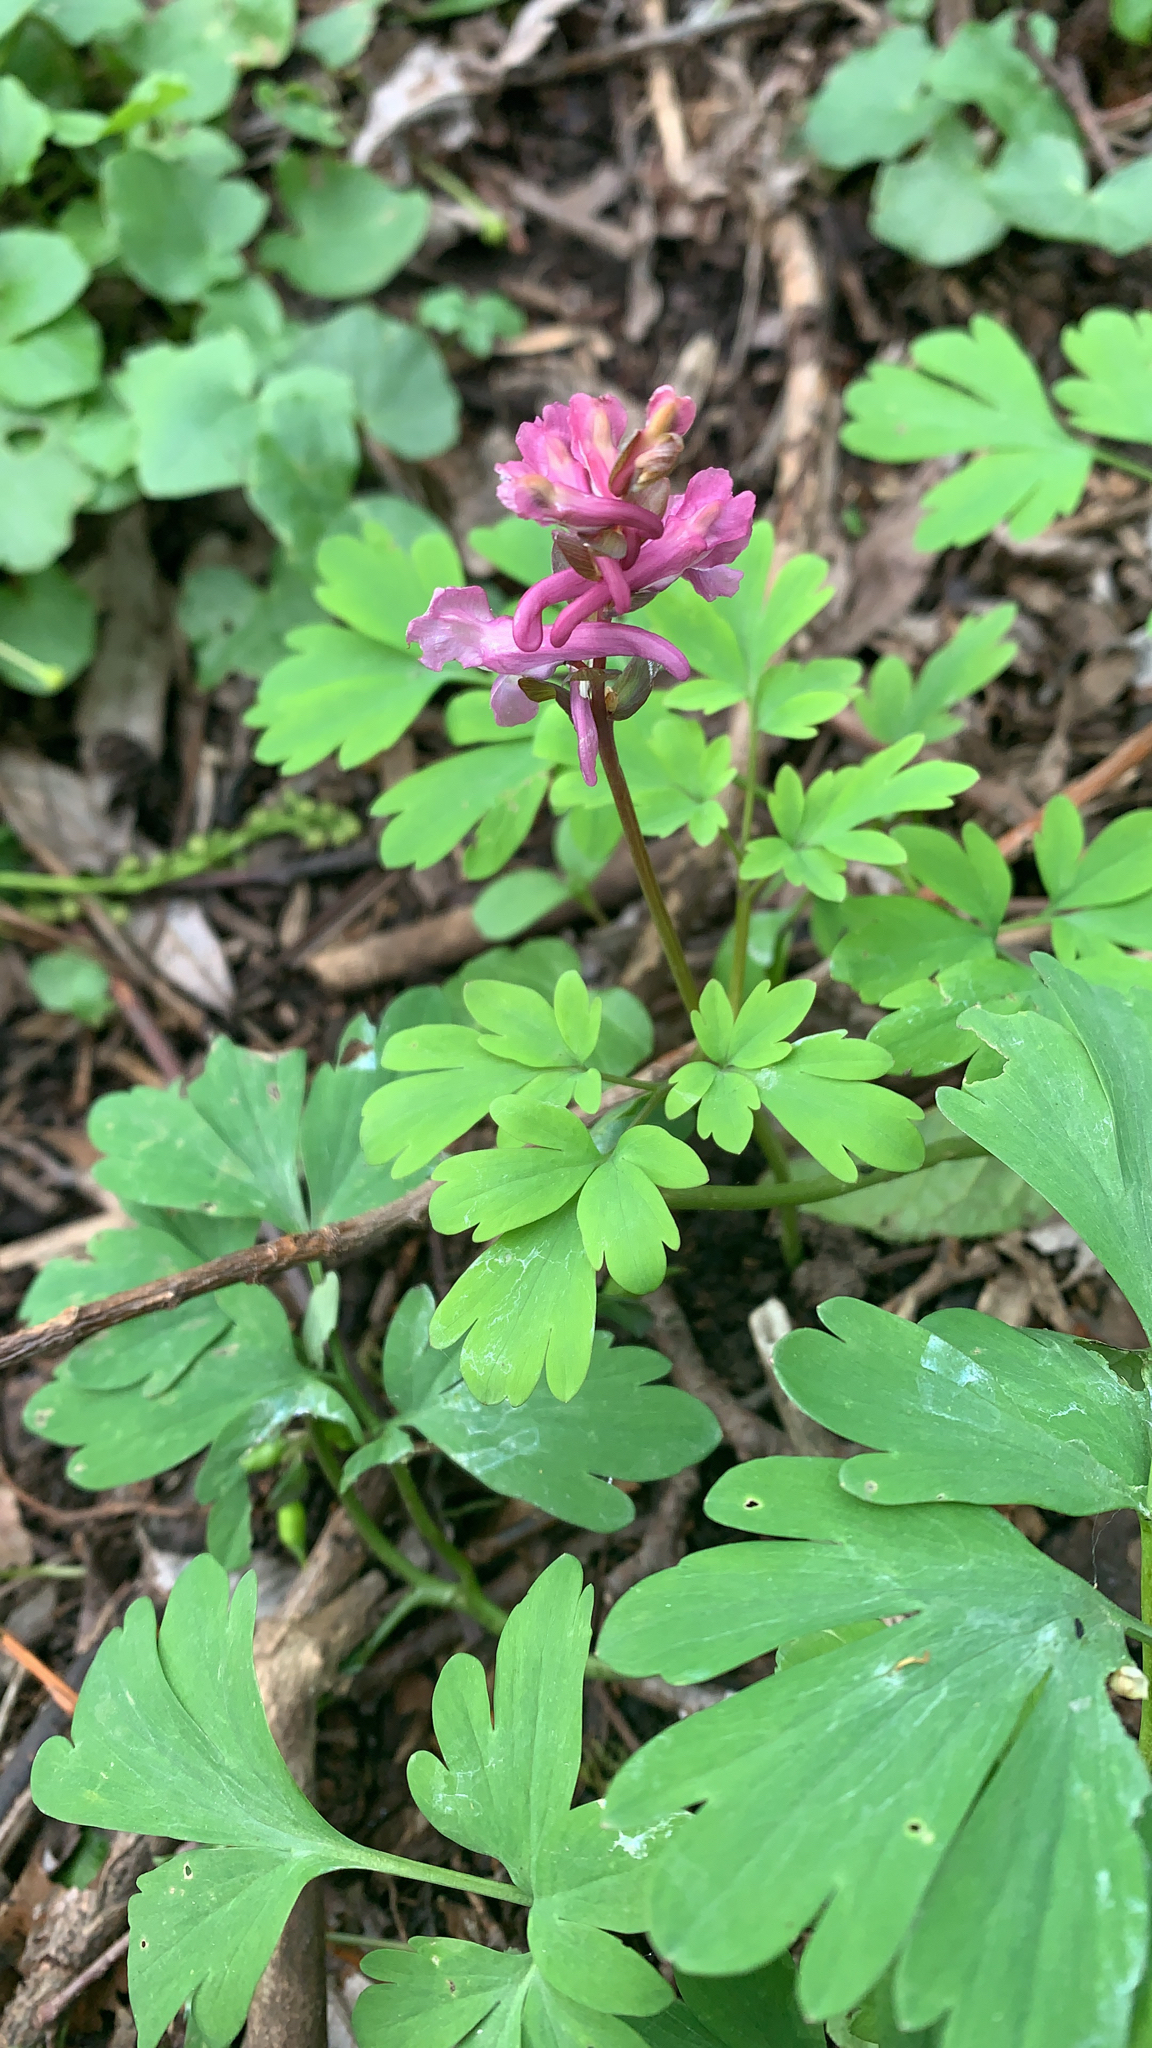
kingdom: Plantae
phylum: Tracheophyta
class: Magnoliopsida
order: Ranunculales
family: Papaveraceae
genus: Corydalis
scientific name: Corydalis cava
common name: Hollowroot
